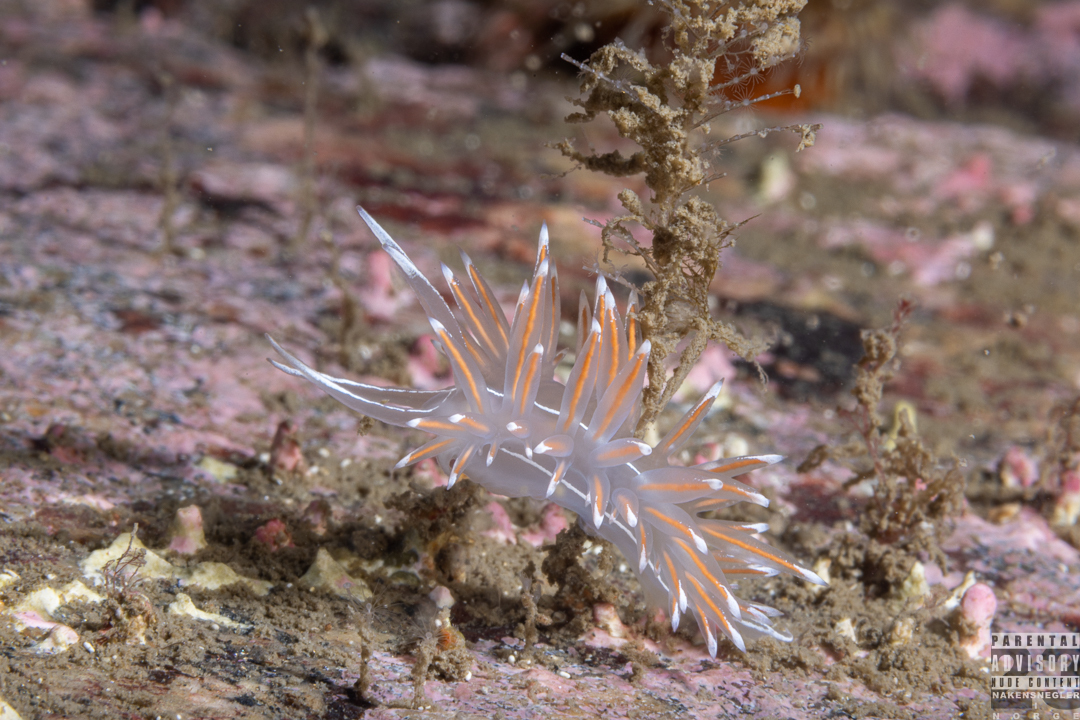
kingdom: Animalia
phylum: Mollusca
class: Gastropoda
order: Nudibranchia
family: Coryphellidae
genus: Coryphella
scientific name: Coryphella lineata
